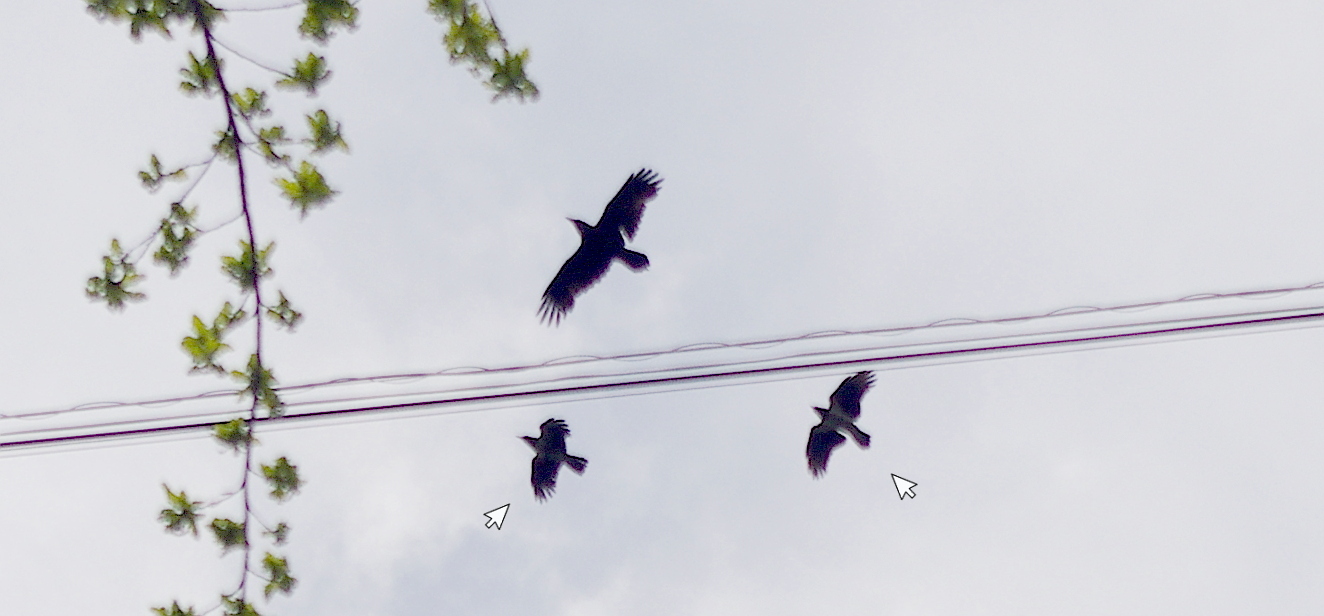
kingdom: Animalia
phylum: Chordata
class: Aves
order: Passeriformes
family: Corvidae
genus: Corvus
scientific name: Corvus cornix
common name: Hooded crow
